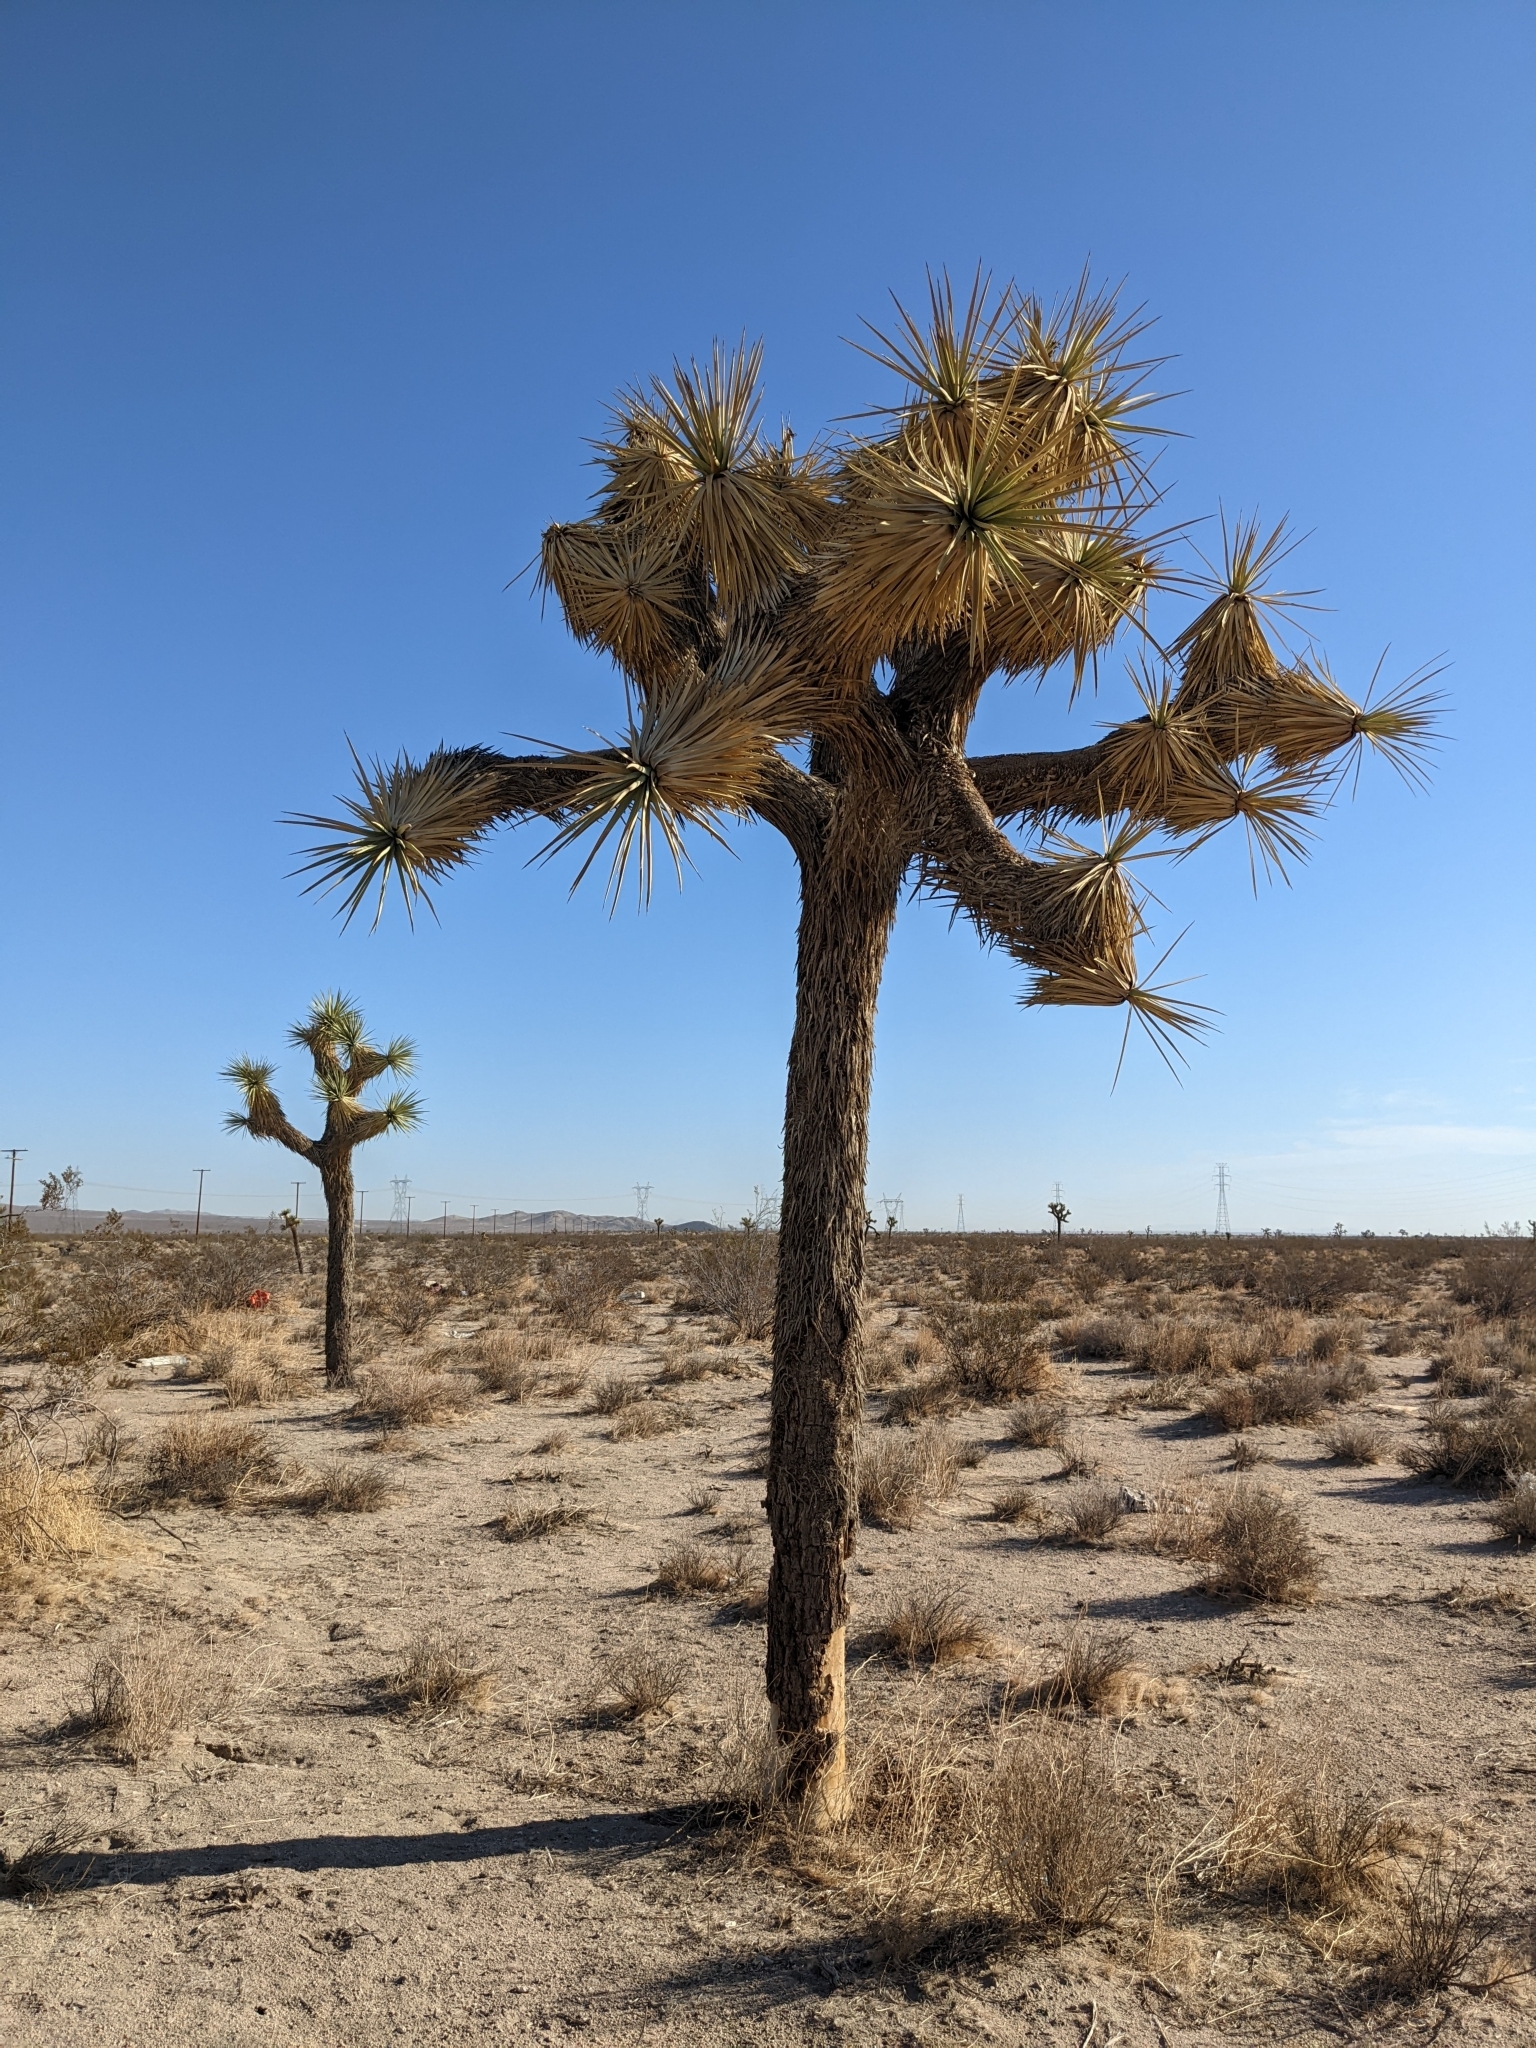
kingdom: Plantae
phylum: Tracheophyta
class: Liliopsida
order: Asparagales
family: Asparagaceae
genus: Yucca
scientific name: Yucca brevifolia
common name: Joshua tree
